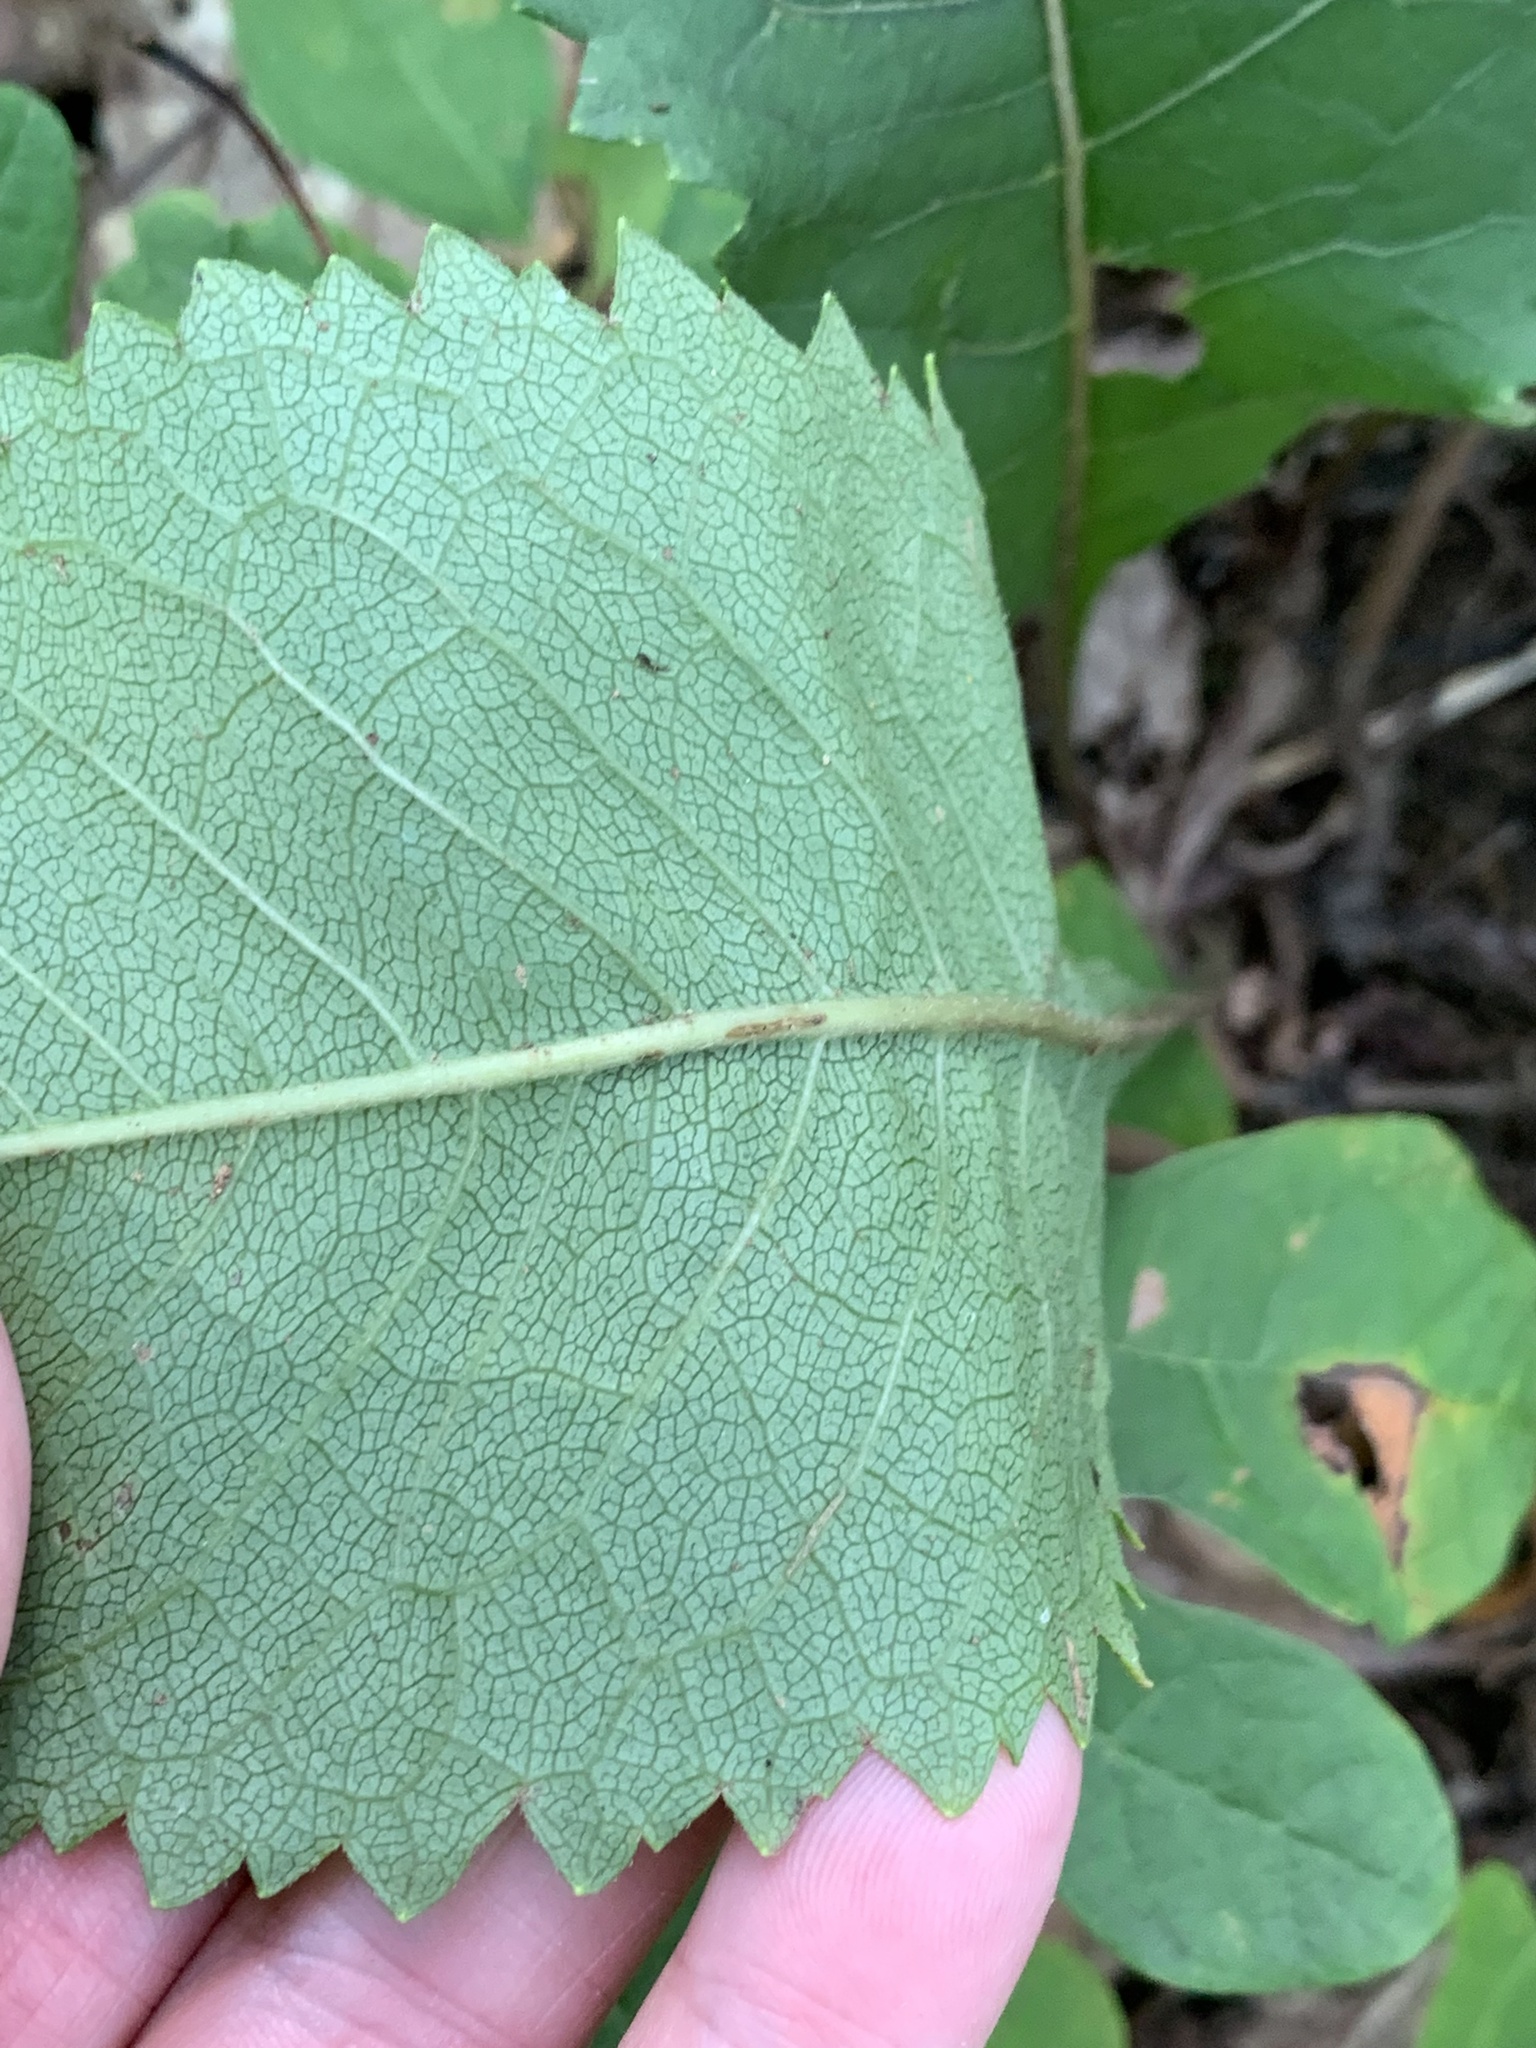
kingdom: Plantae
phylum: Tracheophyta
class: Magnoliopsida
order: Asterales
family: Asteraceae
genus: Parthenium
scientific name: Parthenium integrifolium
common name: American feverfew
